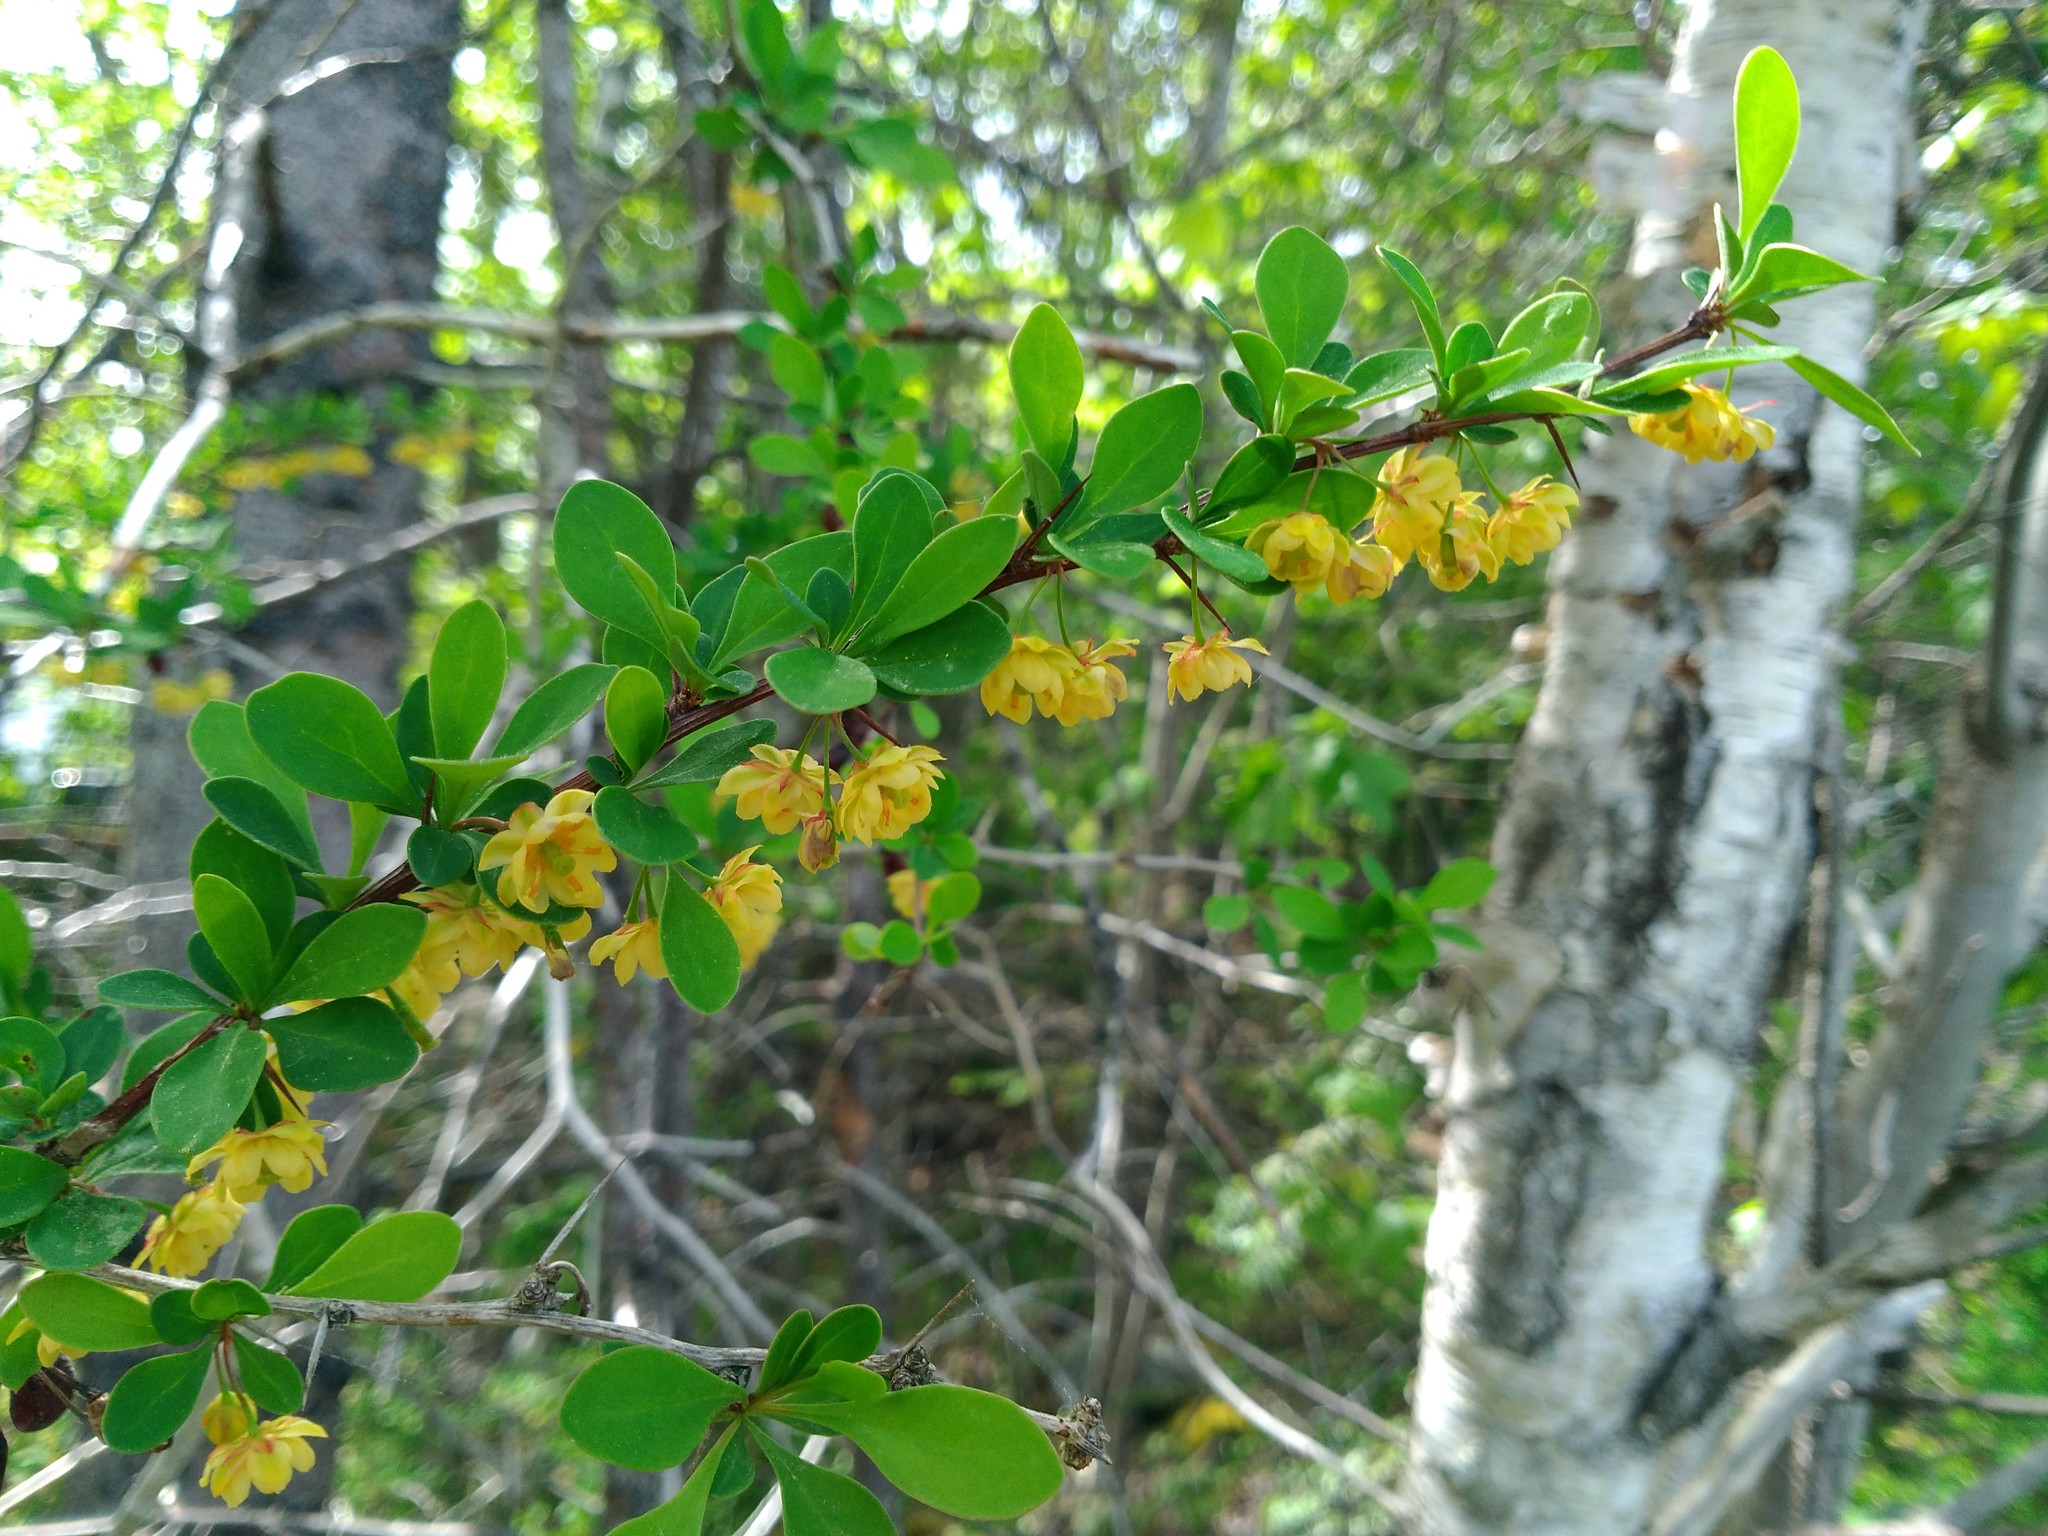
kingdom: Plantae
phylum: Tracheophyta
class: Magnoliopsida
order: Ranunculales
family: Berberidaceae
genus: Berberis
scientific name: Berberis thunbergii
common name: Japanese barberry
